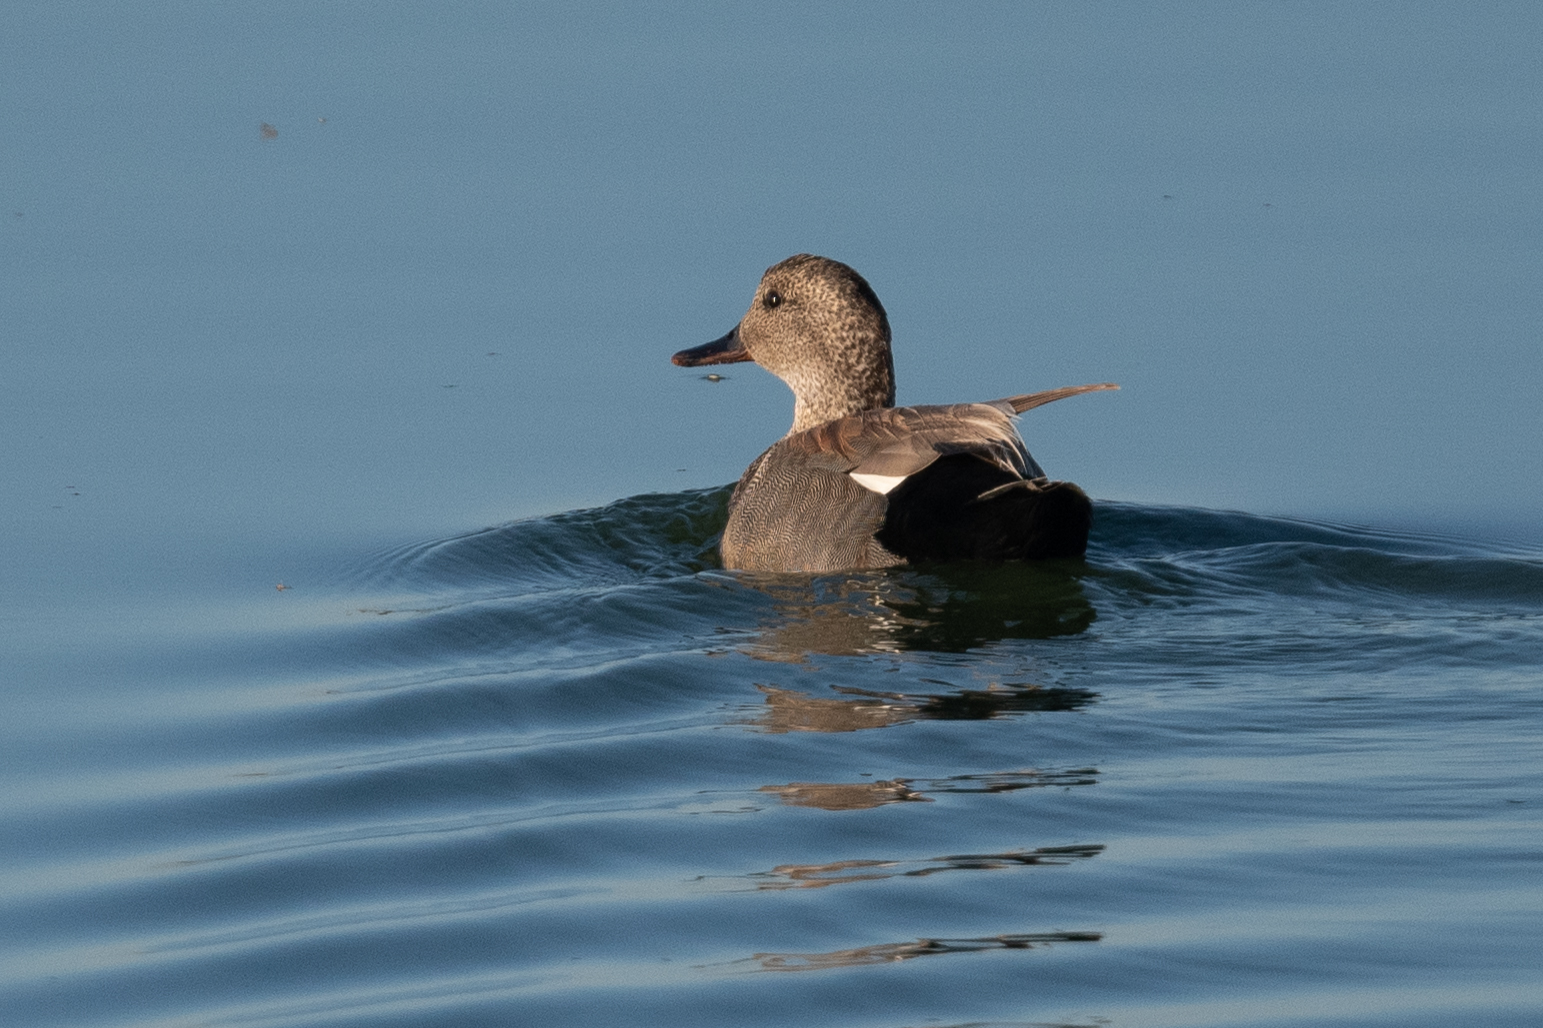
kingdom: Animalia
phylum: Chordata
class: Aves
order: Anseriformes
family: Anatidae
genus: Mareca
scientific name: Mareca strepera
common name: Gadwall
